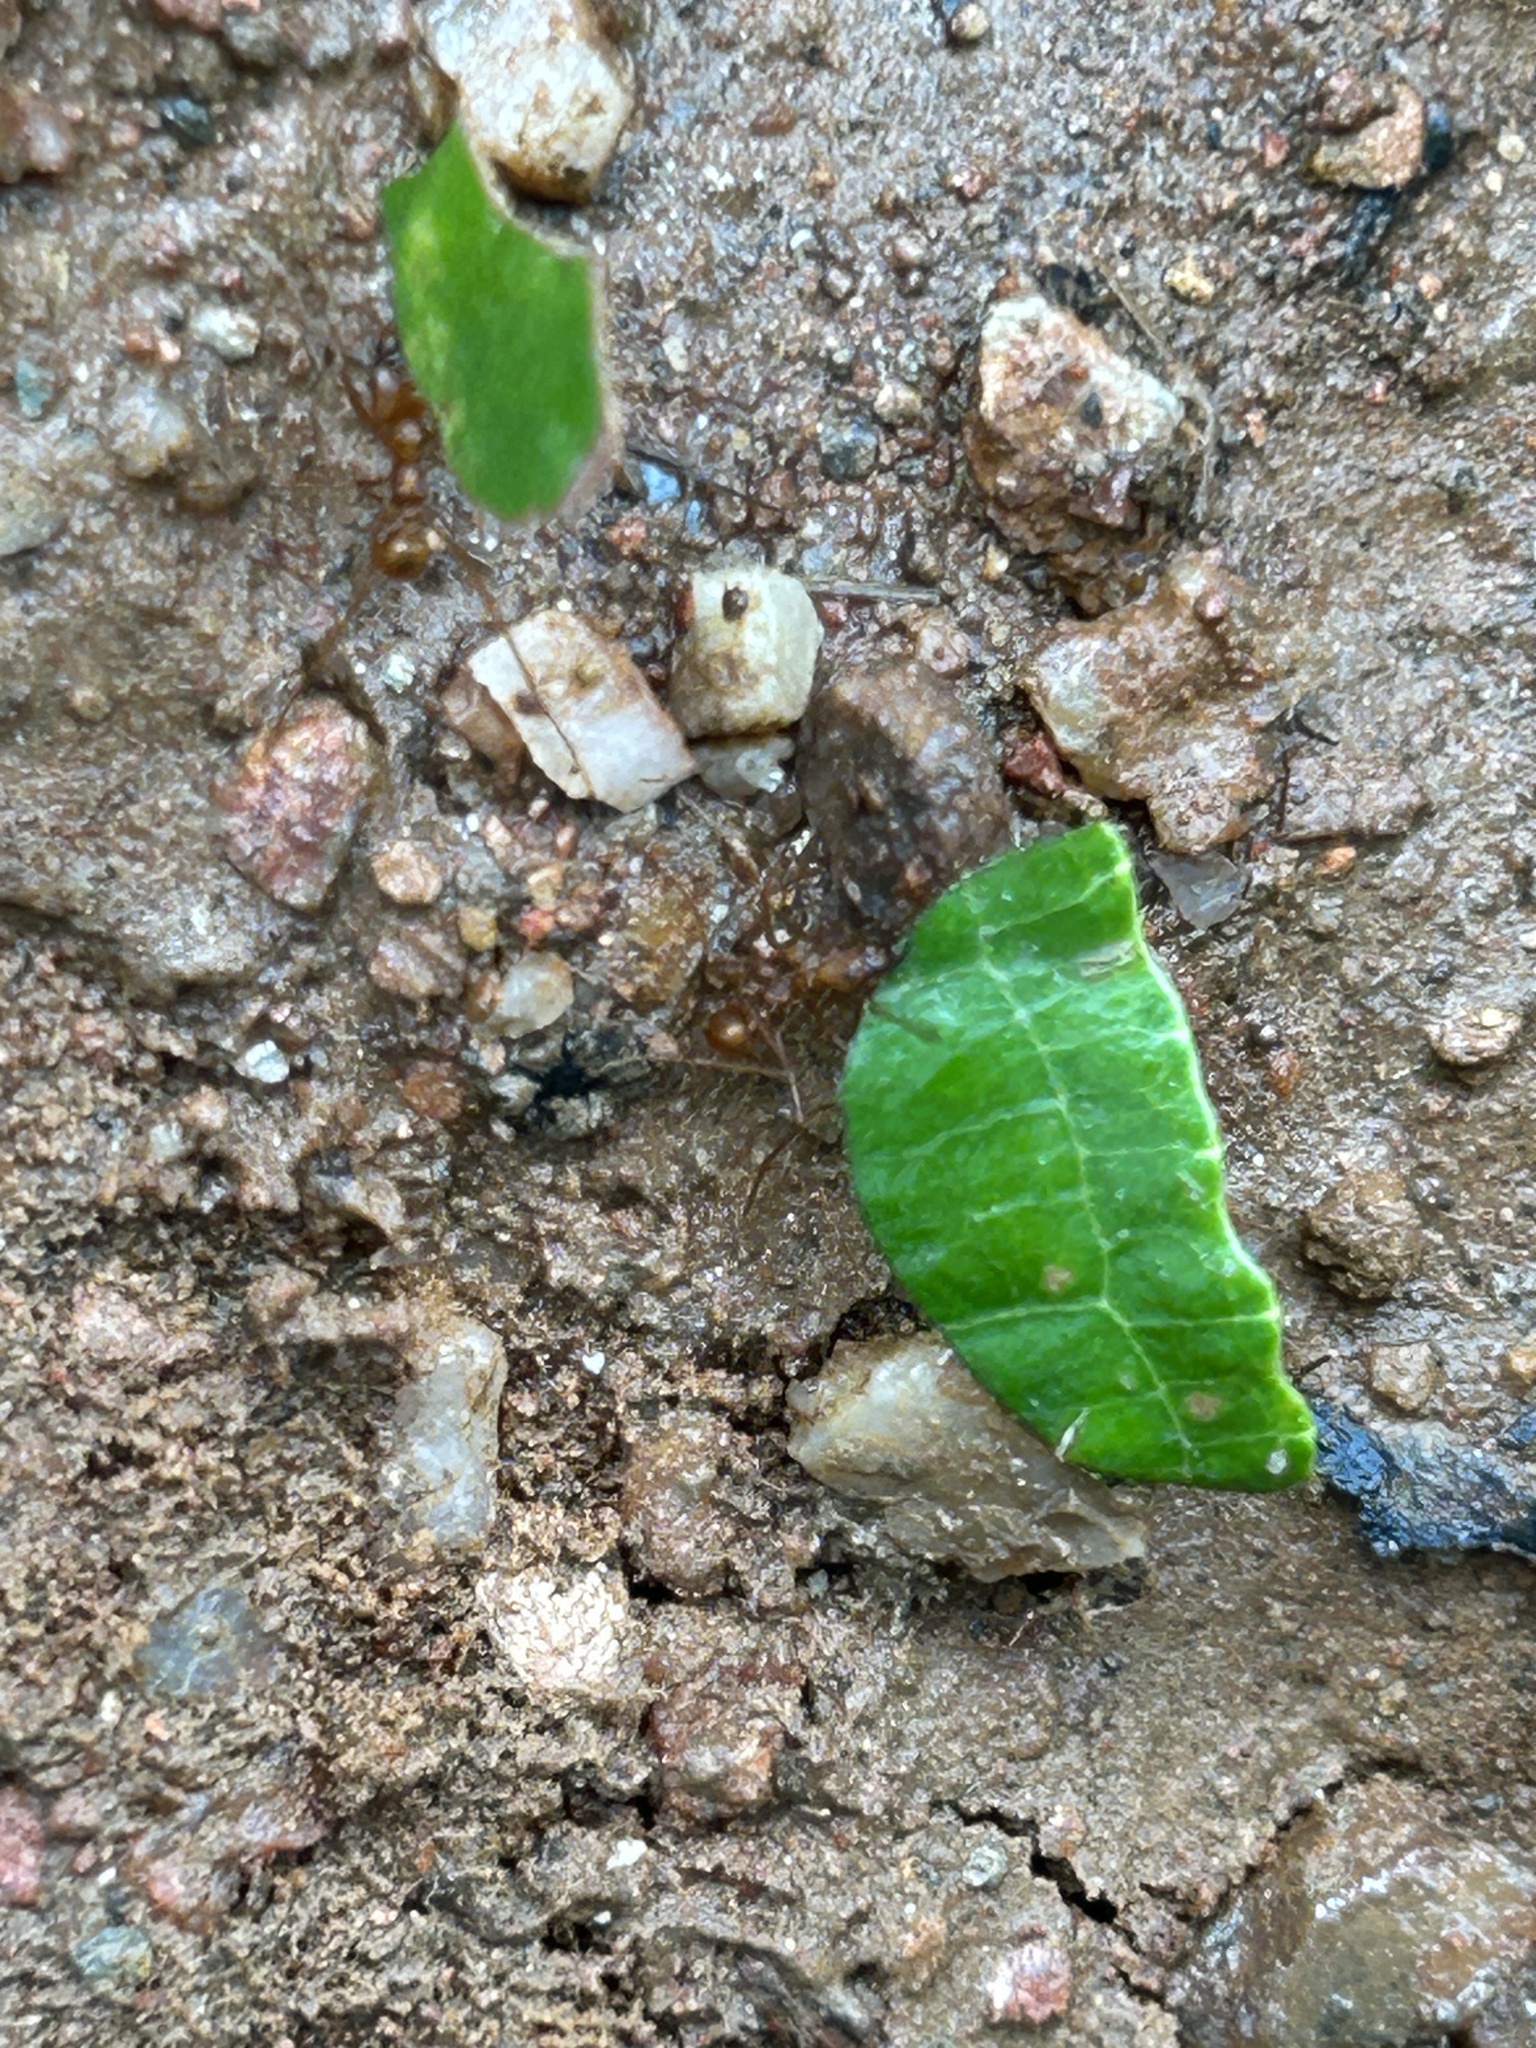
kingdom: Animalia
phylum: Arthropoda
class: Insecta
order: Hymenoptera
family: Formicidae
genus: Atta
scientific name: Atta cephalotes
